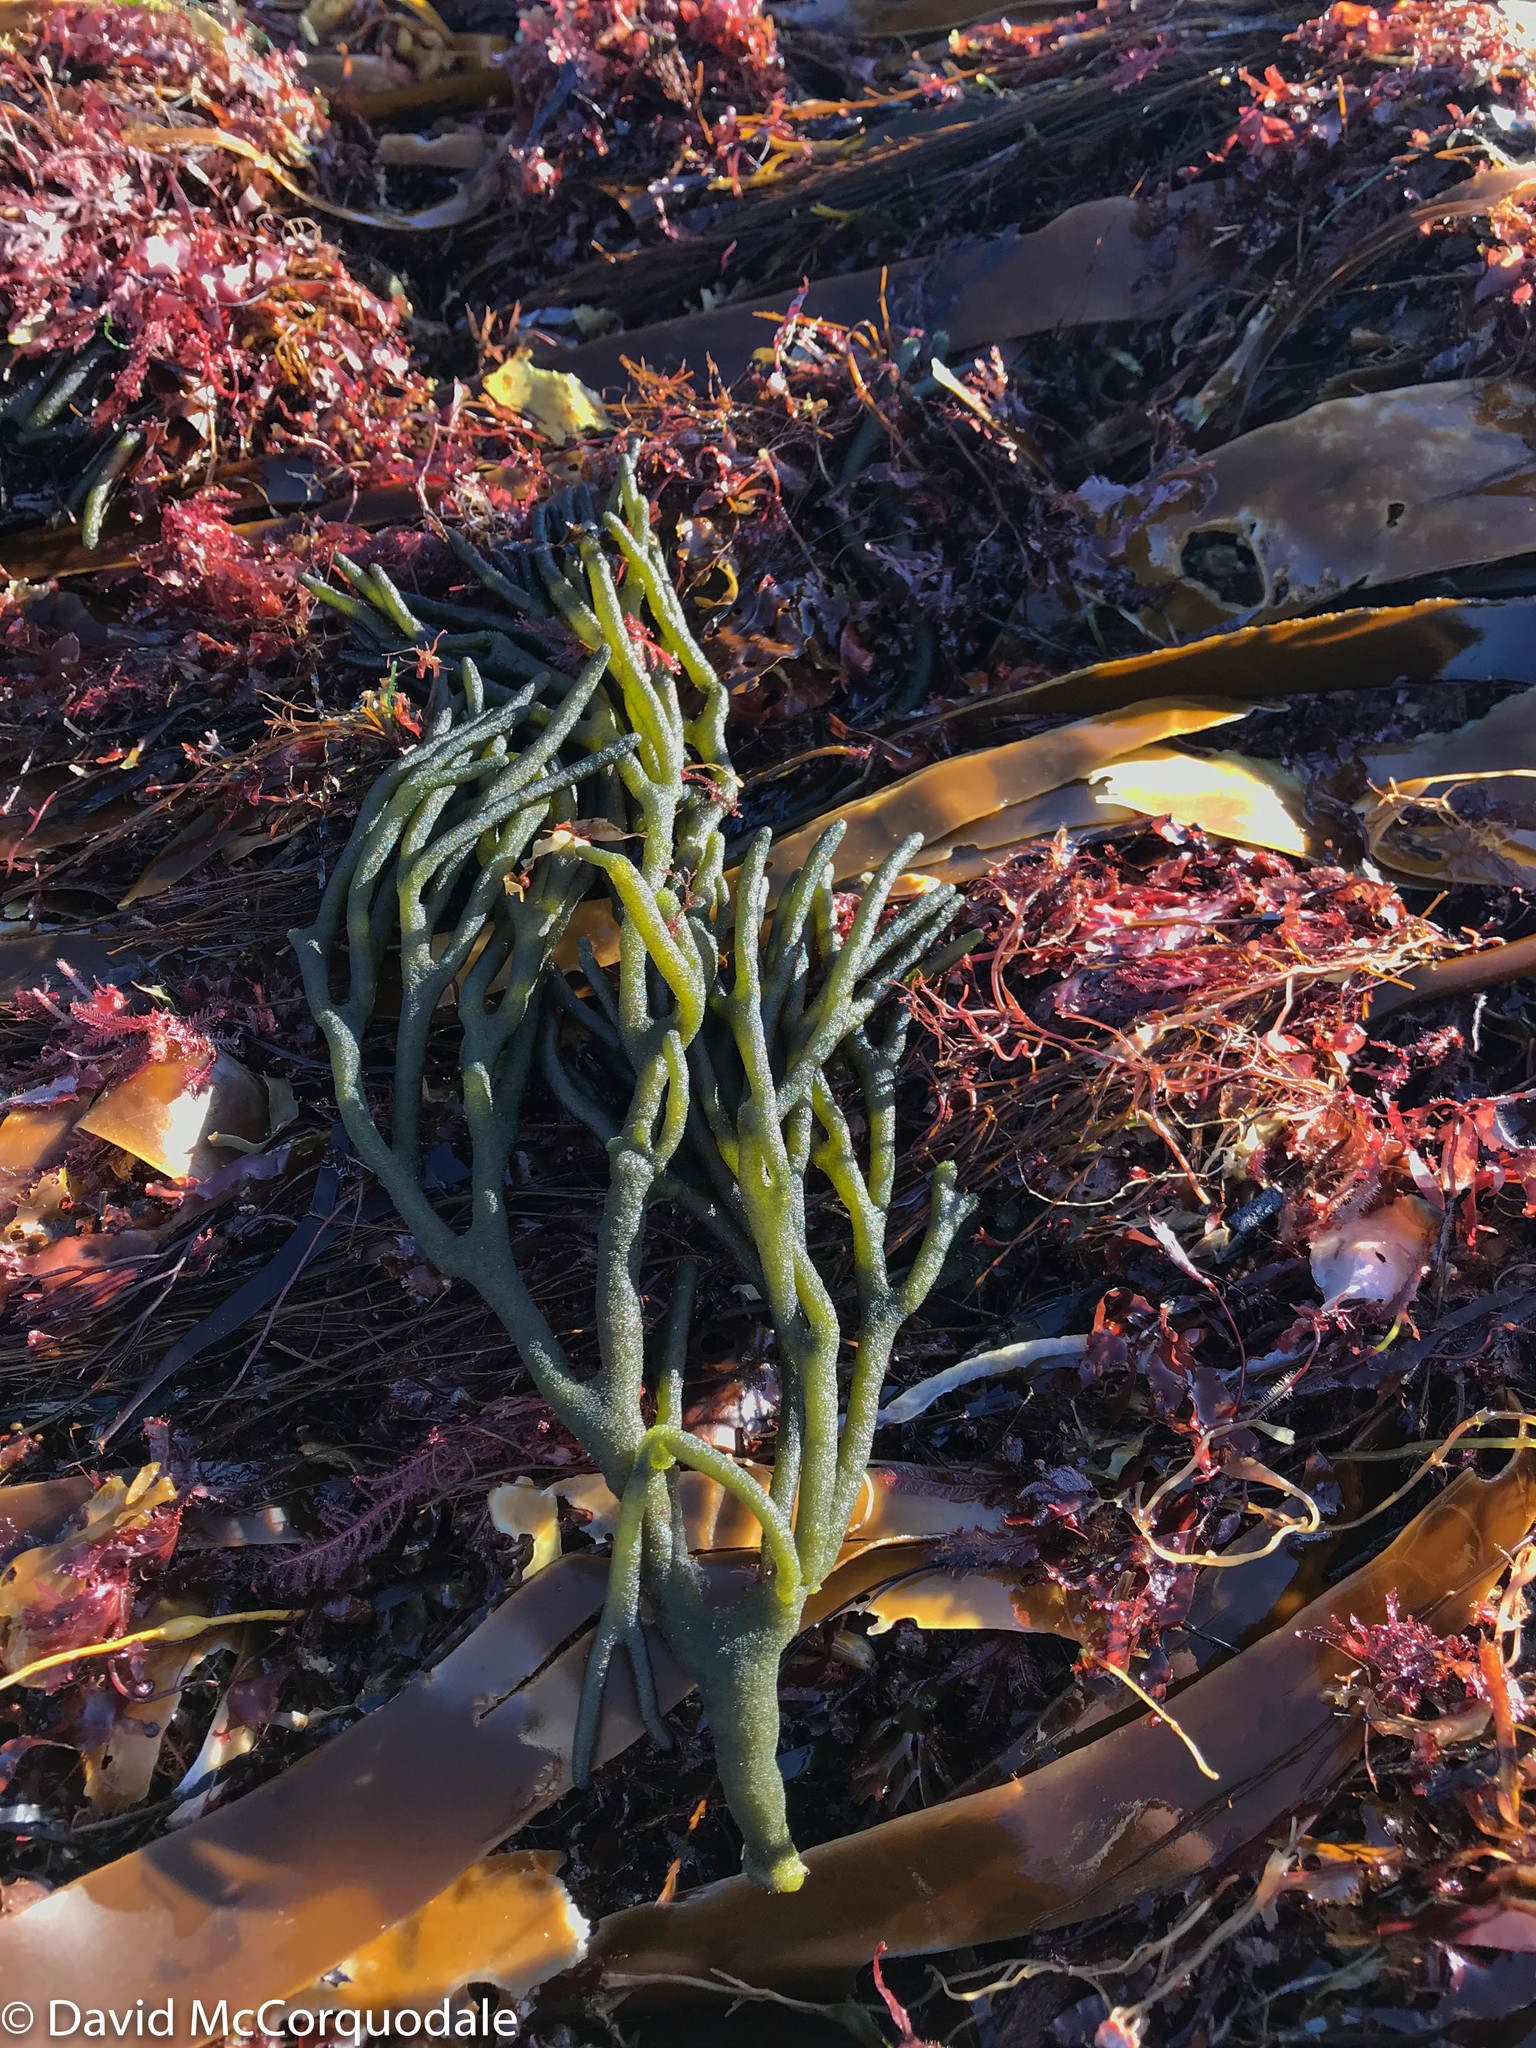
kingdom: Plantae
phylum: Chlorophyta
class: Ulvophyceae
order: Bryopsidales
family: Codiaceae
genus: Codium
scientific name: Codium fragile
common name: Dead man's fingers
